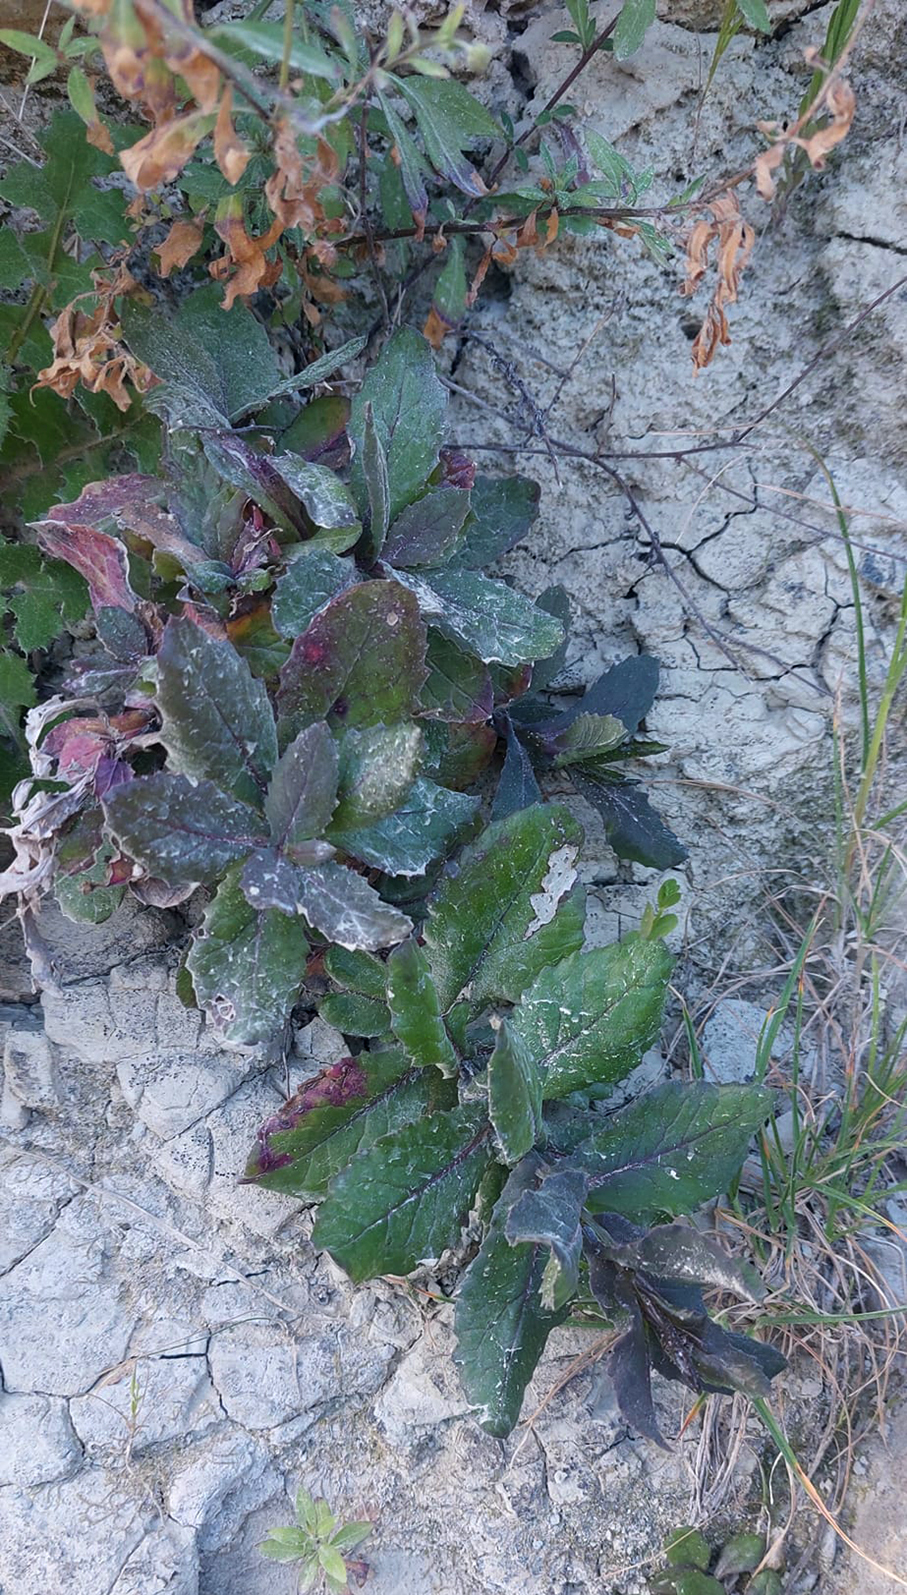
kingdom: Plantae
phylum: Tracheophyta
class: Magnoliopsida
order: Asterales
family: Asteraceae
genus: Senecio
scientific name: Senecio banksii
